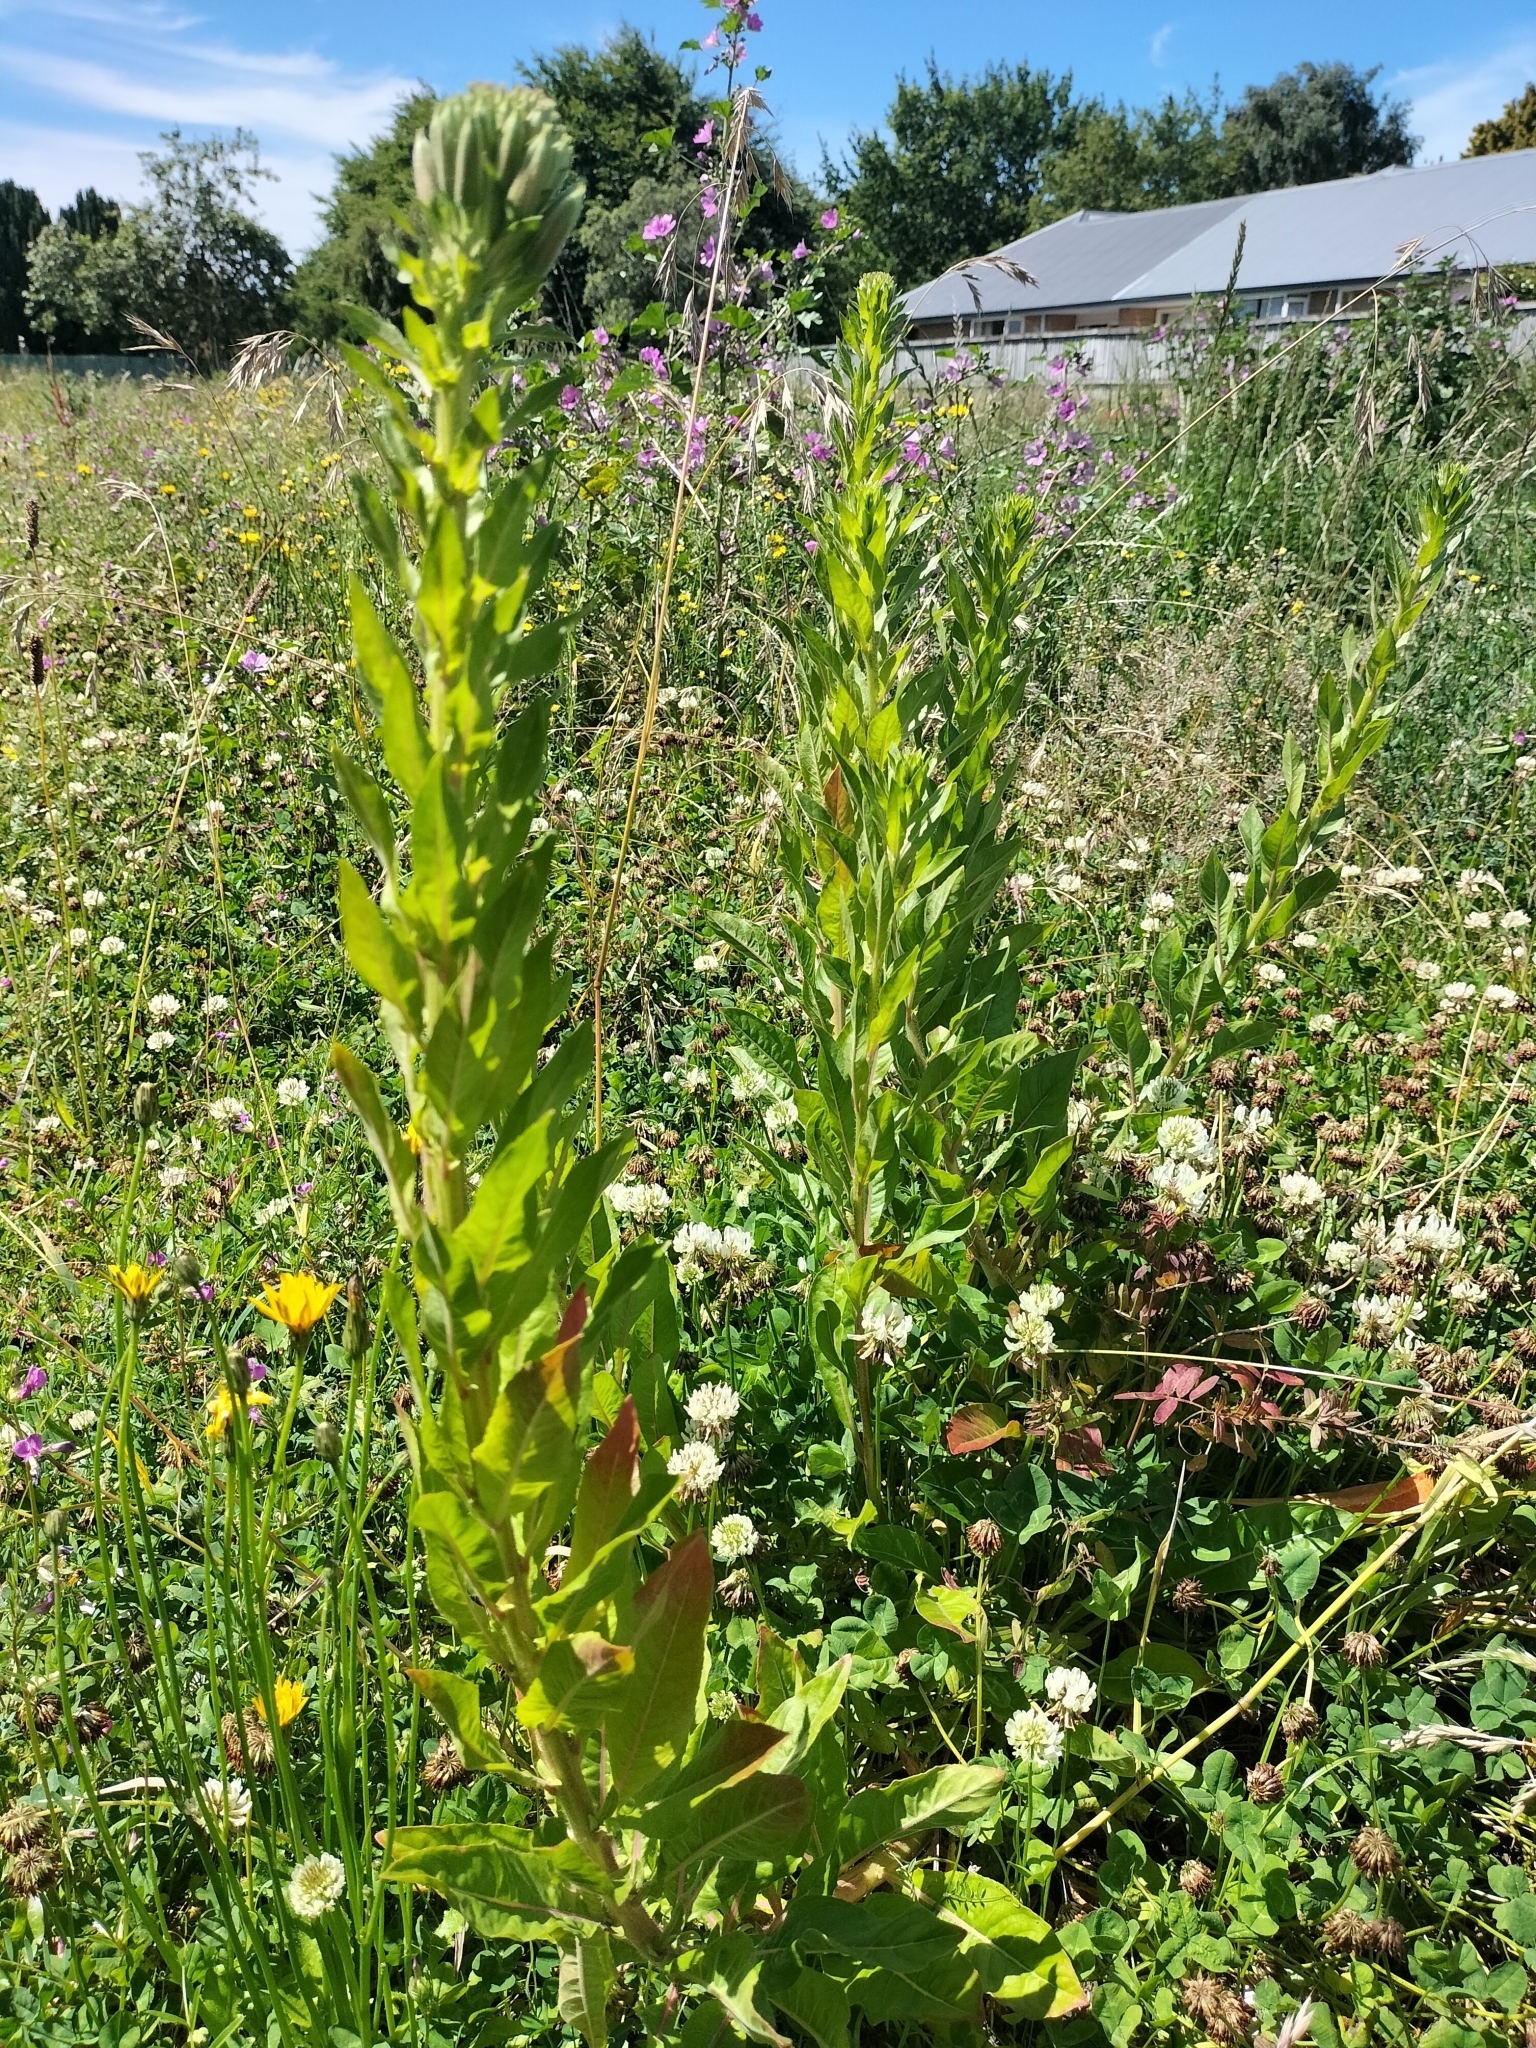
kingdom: Plantae
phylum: Tracheophyta
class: Magnoliopsida
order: Myrtales
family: Onagraceae
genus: Oenothera
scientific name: Oenothera glazioviana
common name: Large-flowered evening-primrose
